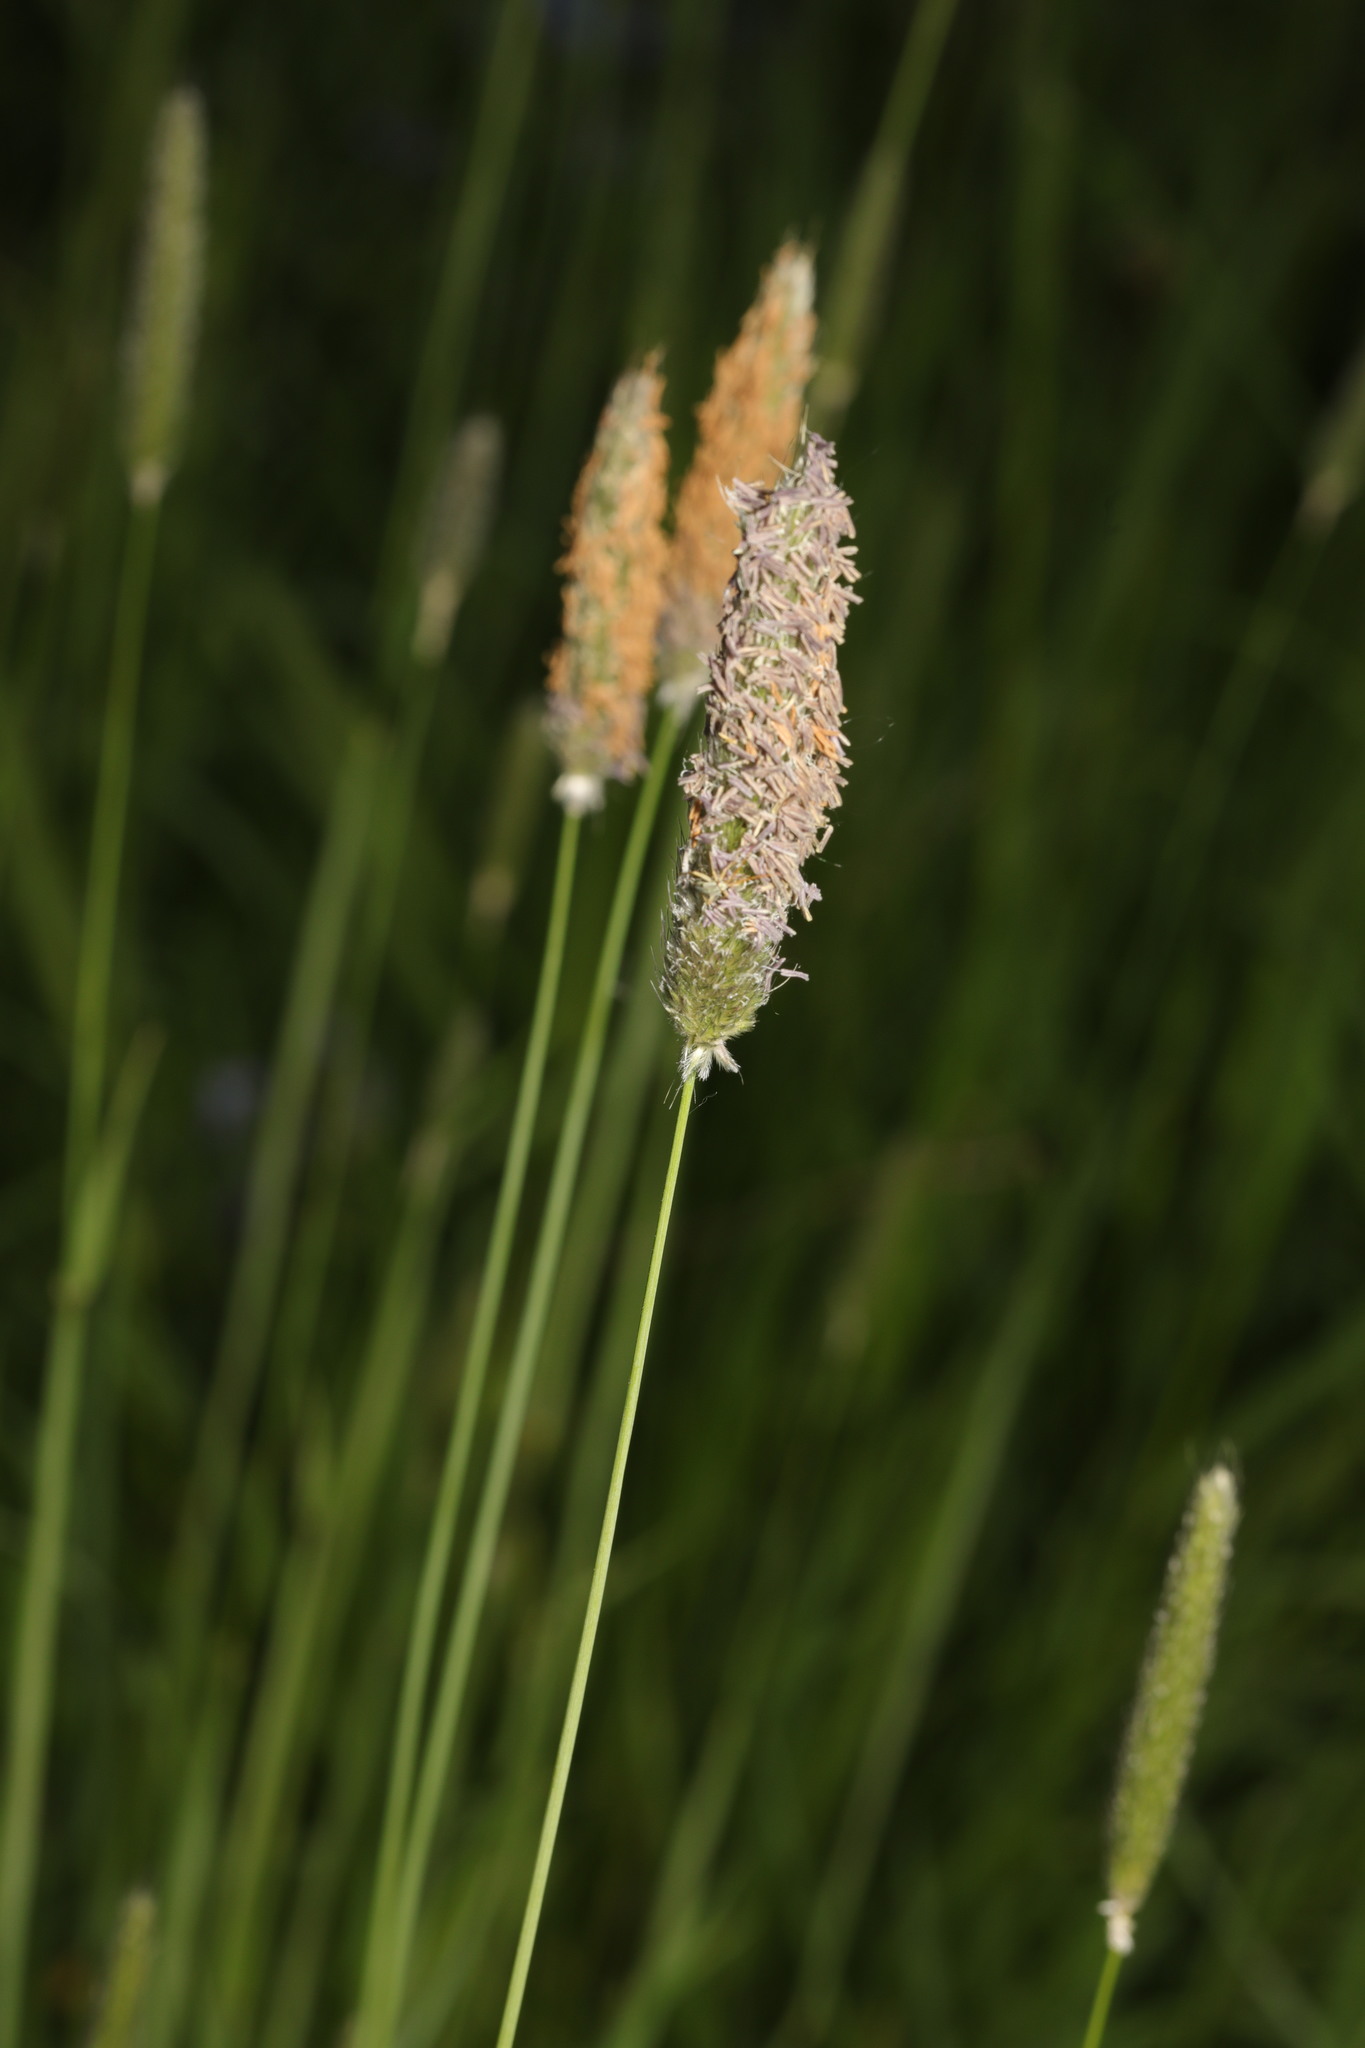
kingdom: Plantae
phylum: Tracheophyta
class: Liliopsida
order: Poales
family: Poaceae
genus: Alopecurus
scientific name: Alopecurus pratensis
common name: Meadow foxtail
